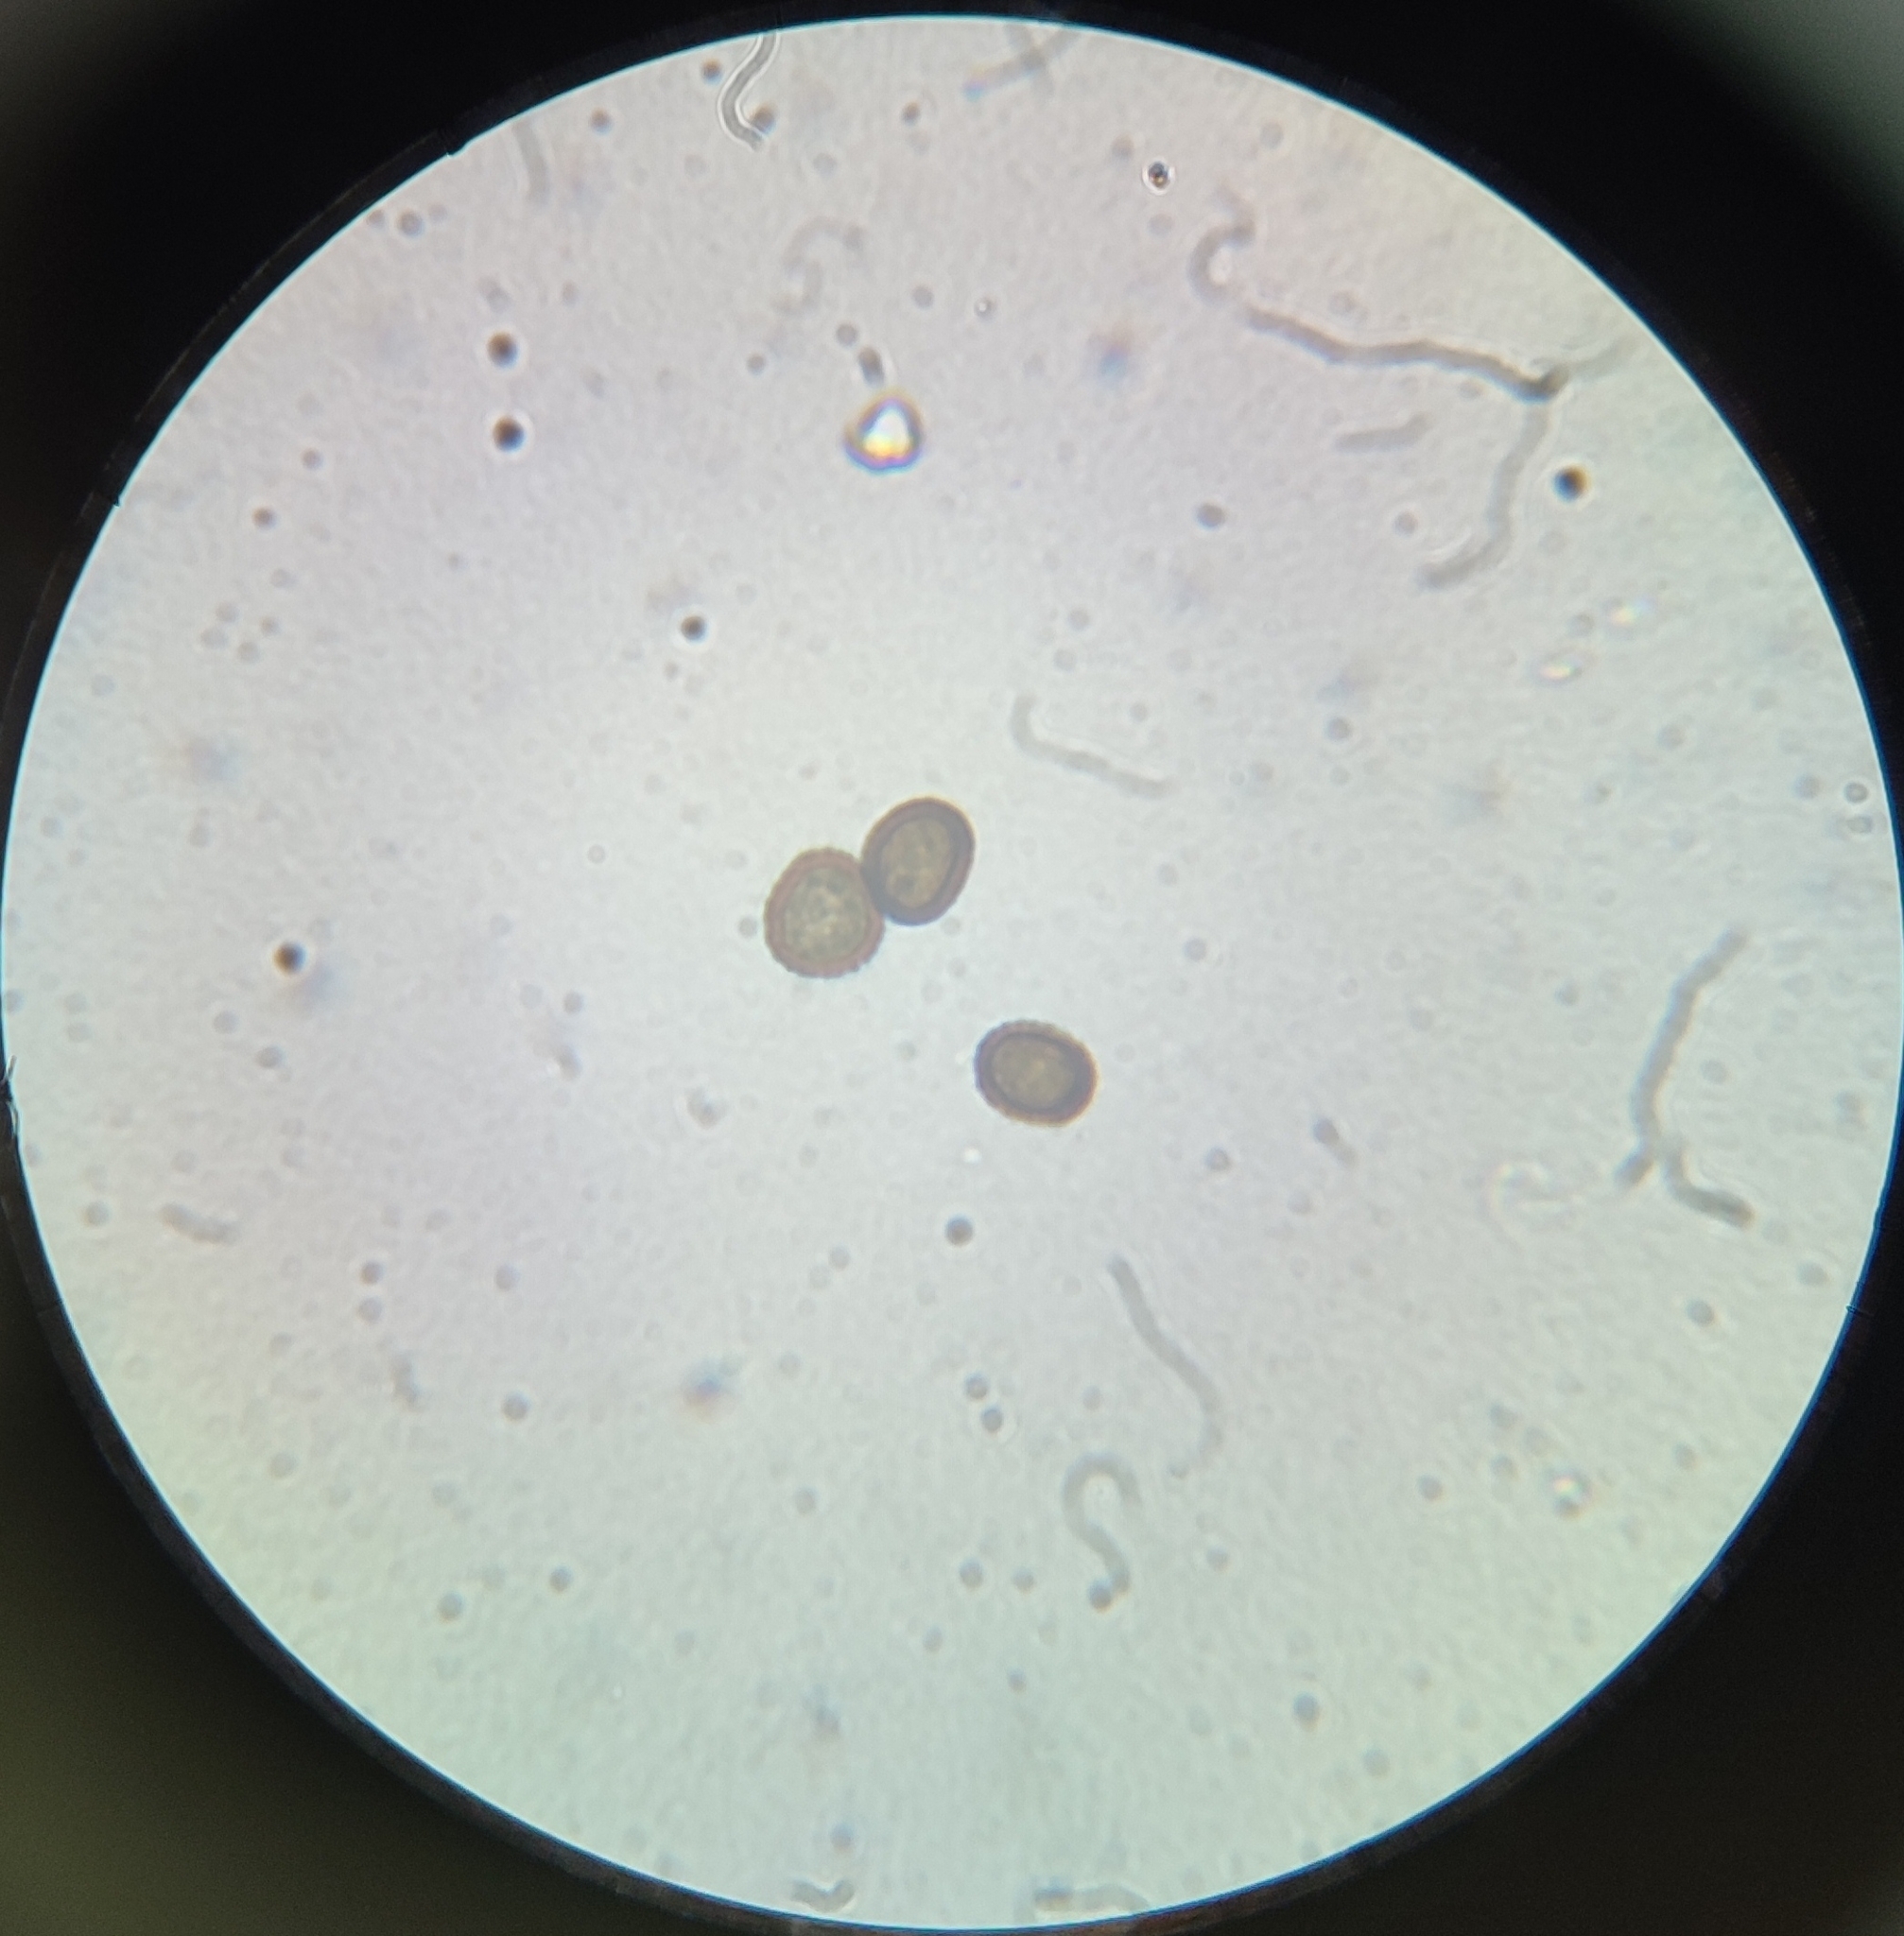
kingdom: Fungi
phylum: Basidiomycota
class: Ustilaginomycetes
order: Ustilaginales
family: Ustilaginaceae
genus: Ustilago
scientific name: Ustilago syntherismae
